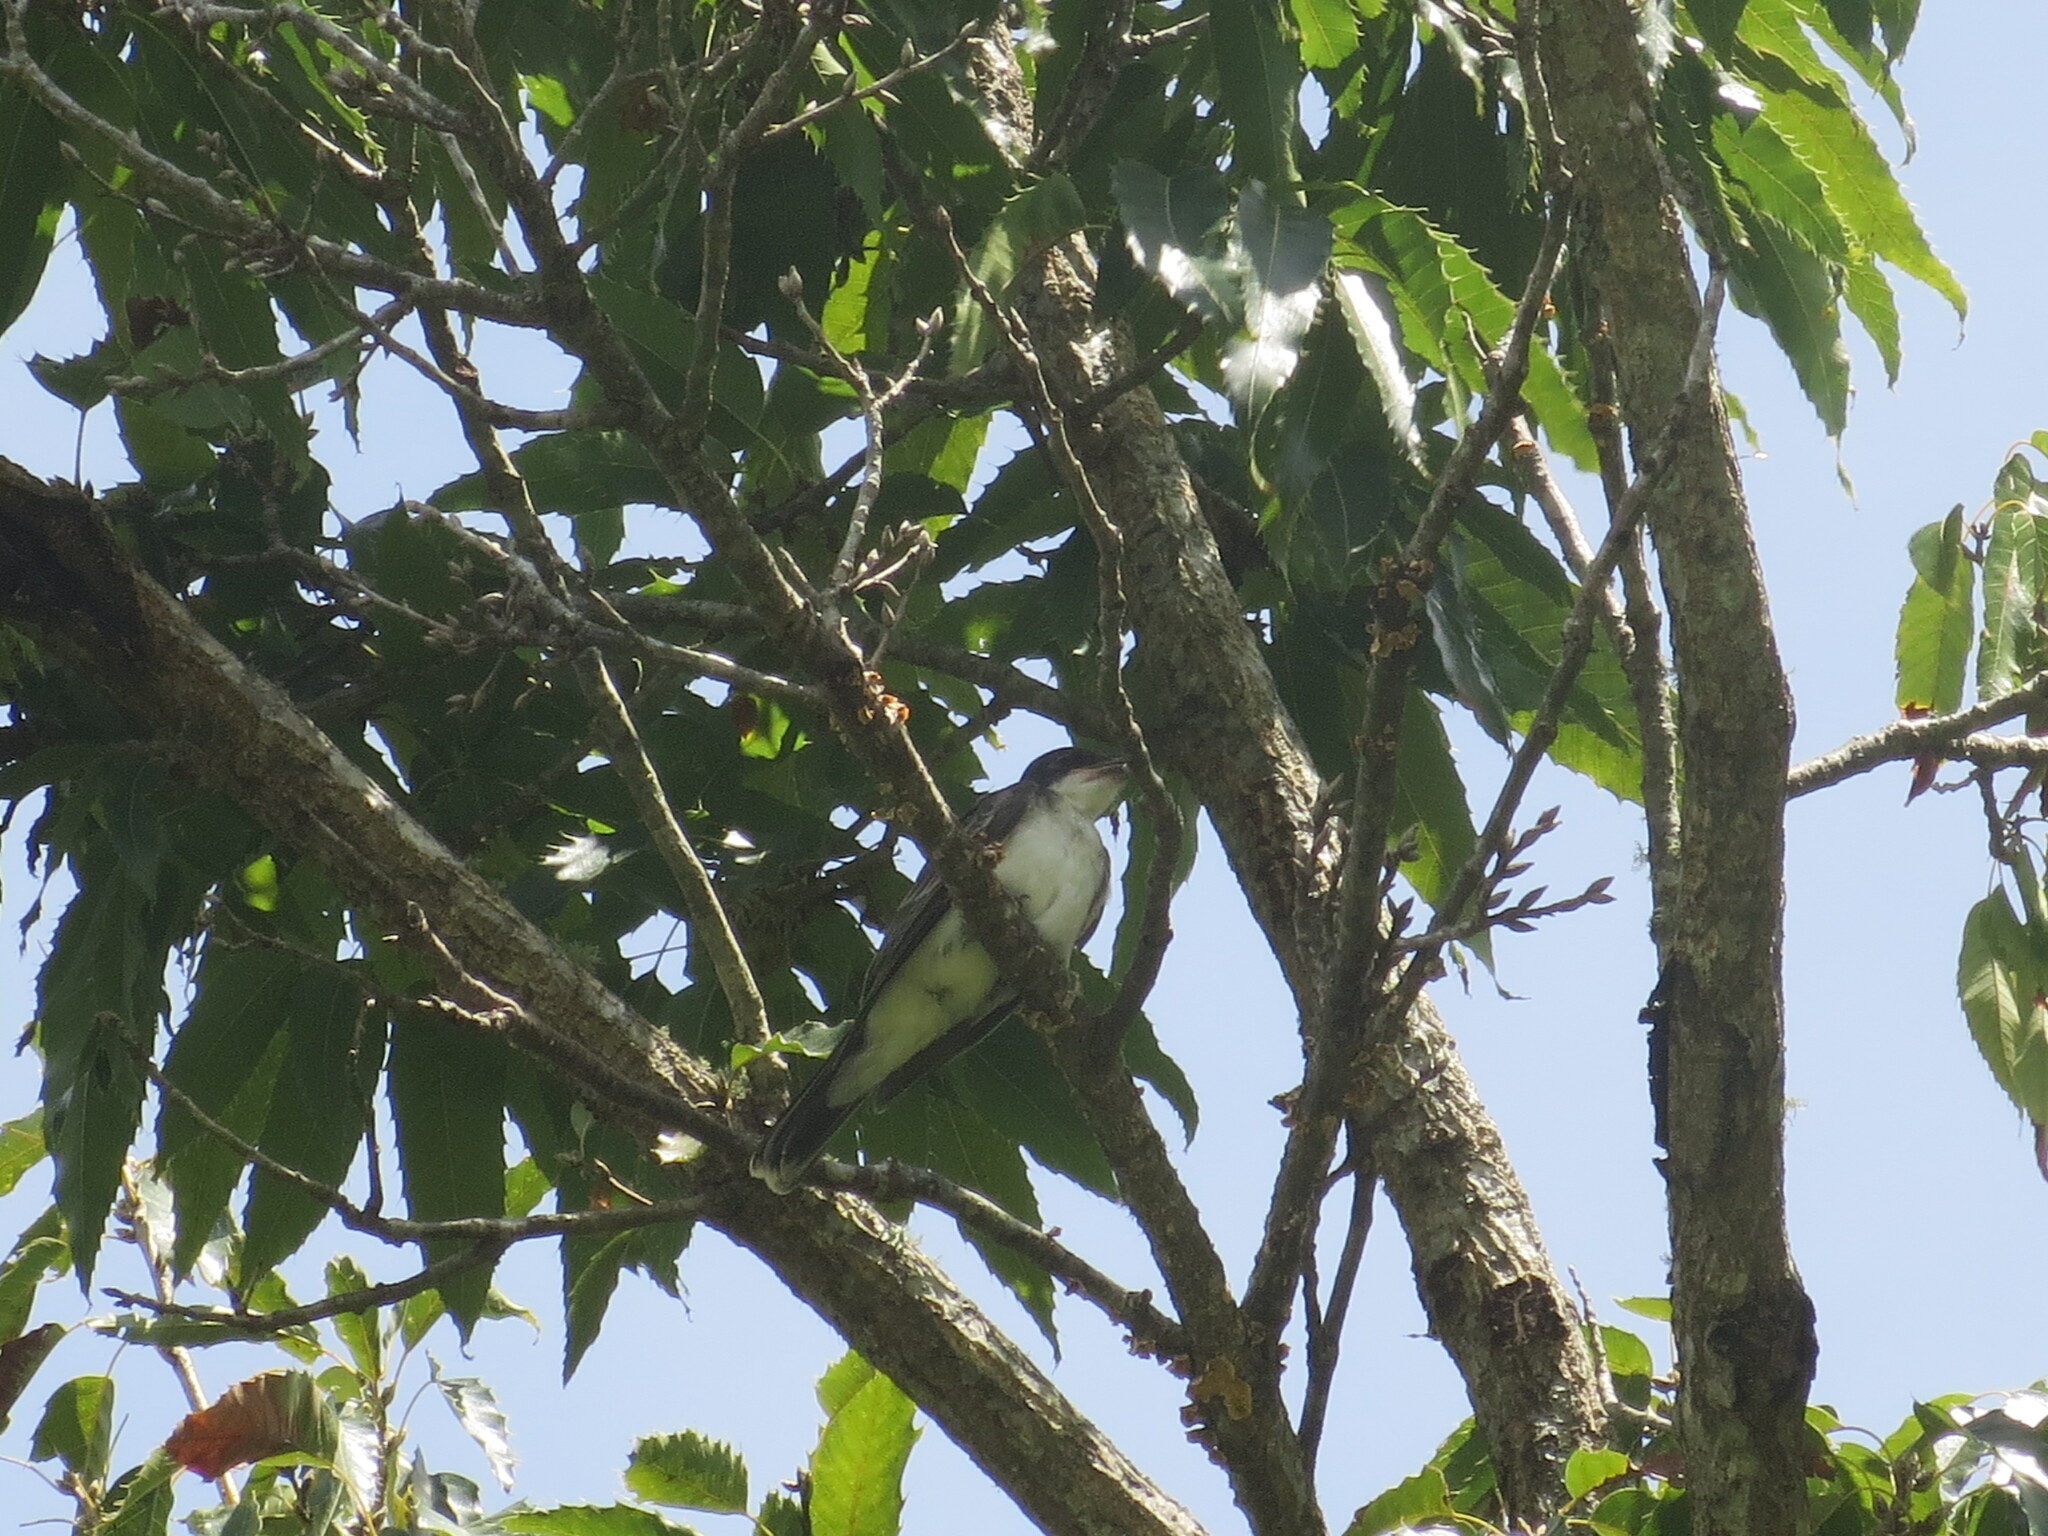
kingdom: Animalia
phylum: Chordata
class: Aves
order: Passeriformes
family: Tyrannidae
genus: Tyrannus
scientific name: Tyrannus tyrannus
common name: Eastern kingbird
